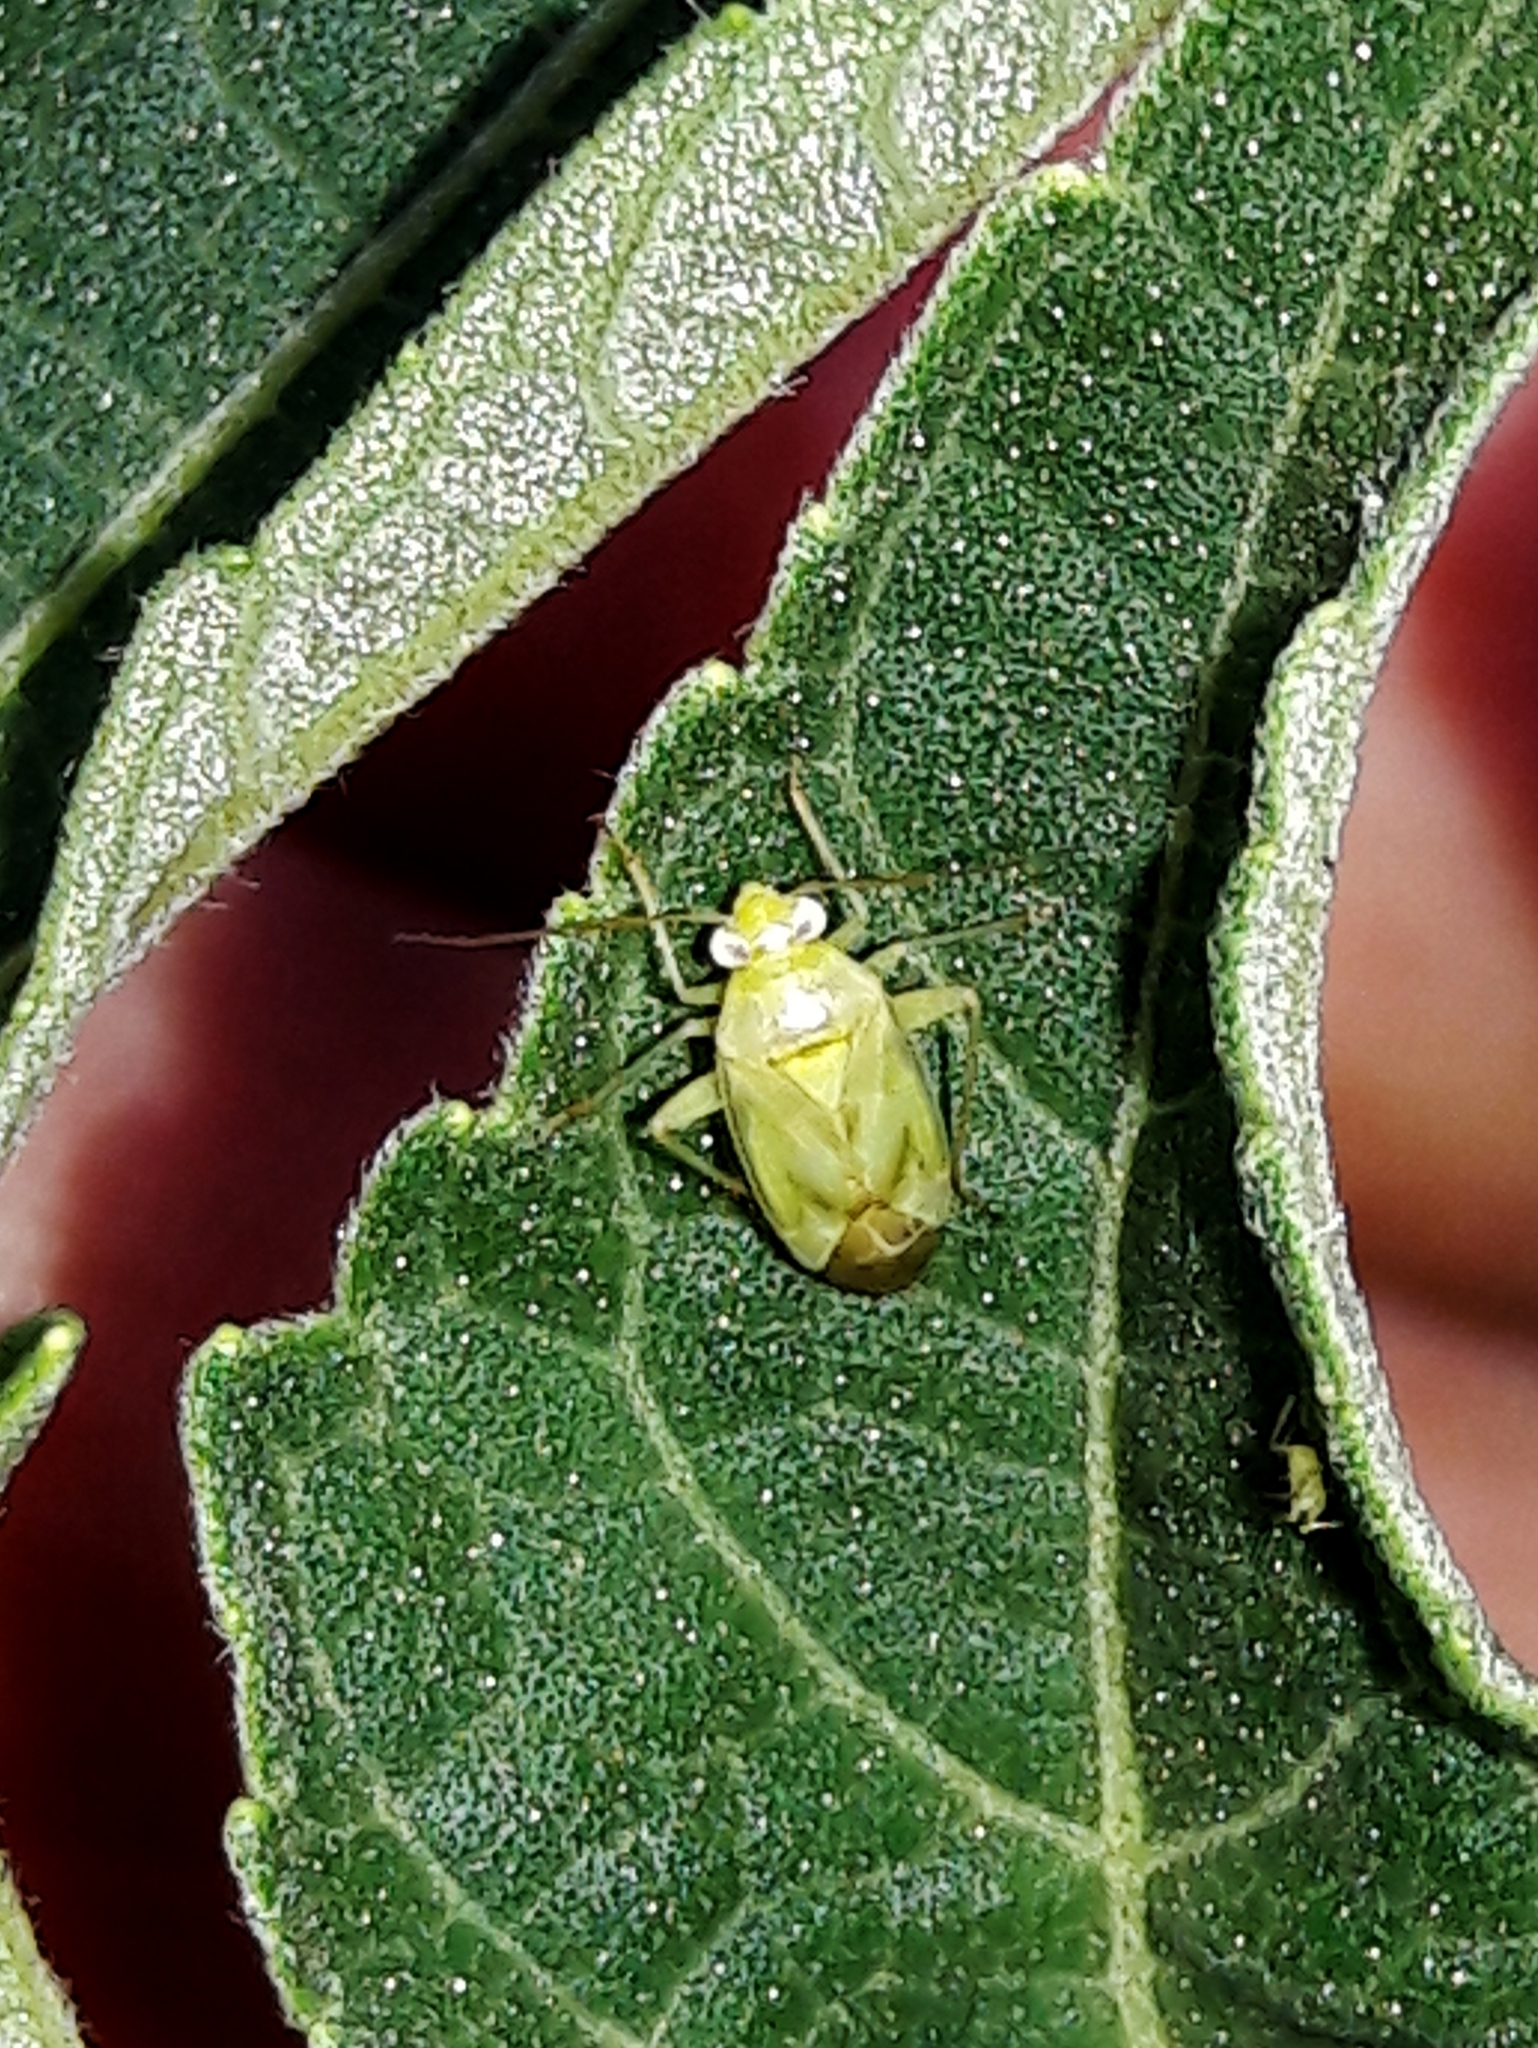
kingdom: Animalia
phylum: Arthropoda
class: Insecta
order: Hemiptera
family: Miridae
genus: Taylorilygus
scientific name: Taylorilygus apicalis
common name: Plant bug
